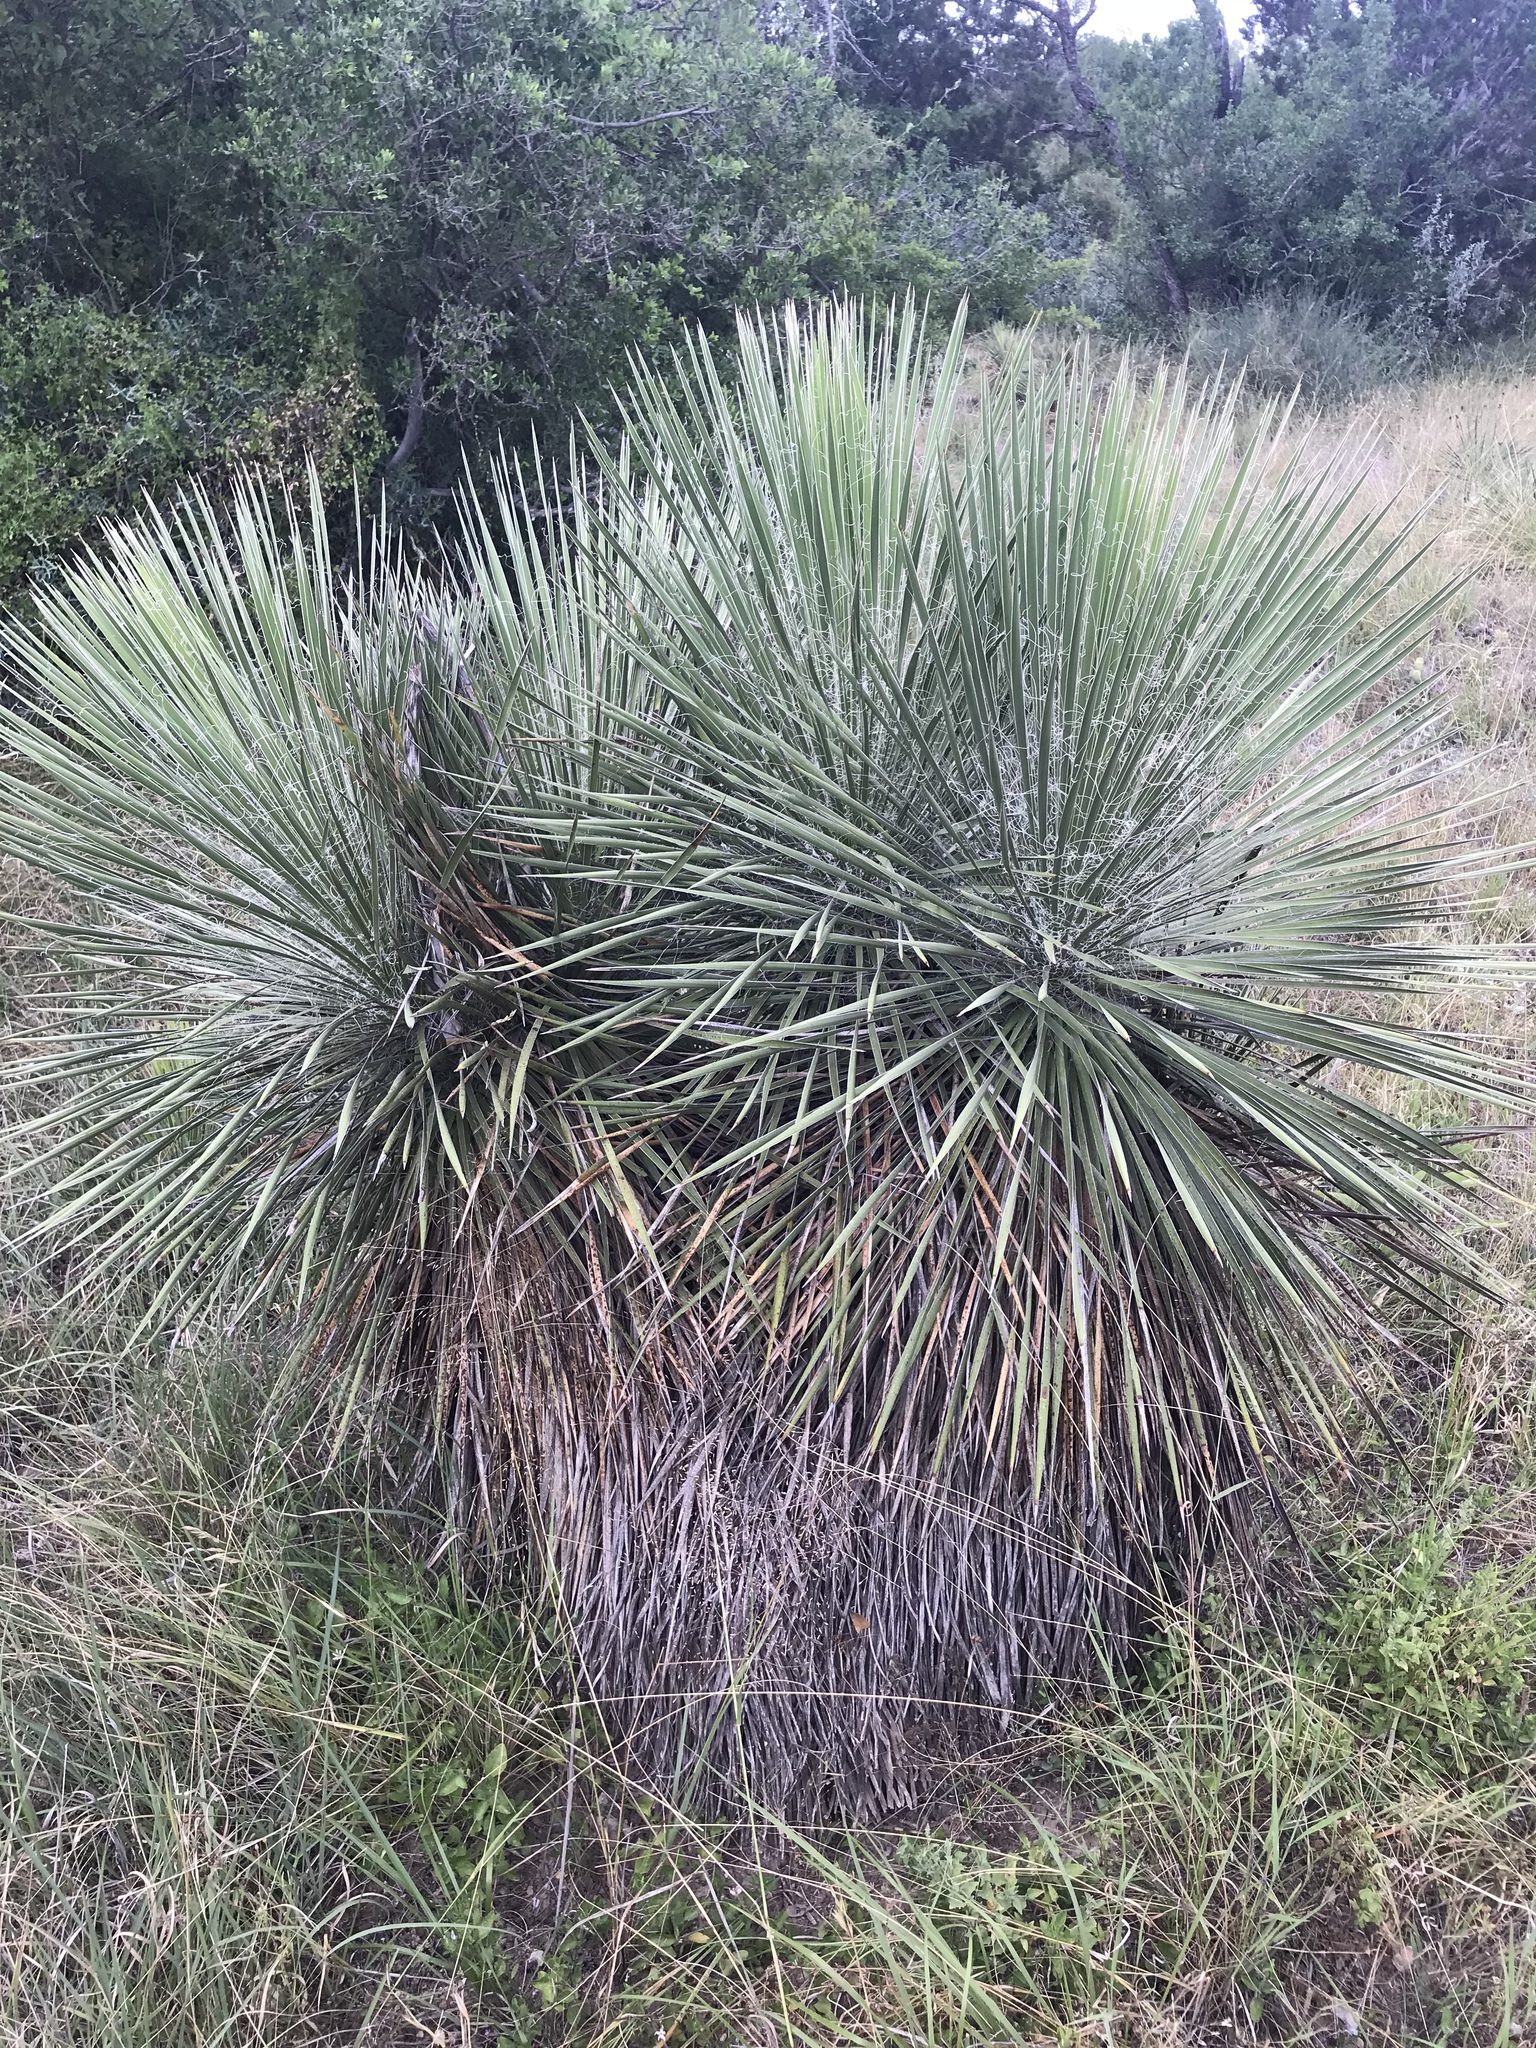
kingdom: Plantae
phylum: Tracheophyta
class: Liliopsida
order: Asparagales
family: Asparagaceae
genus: Yucca
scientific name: Yucca constricta
